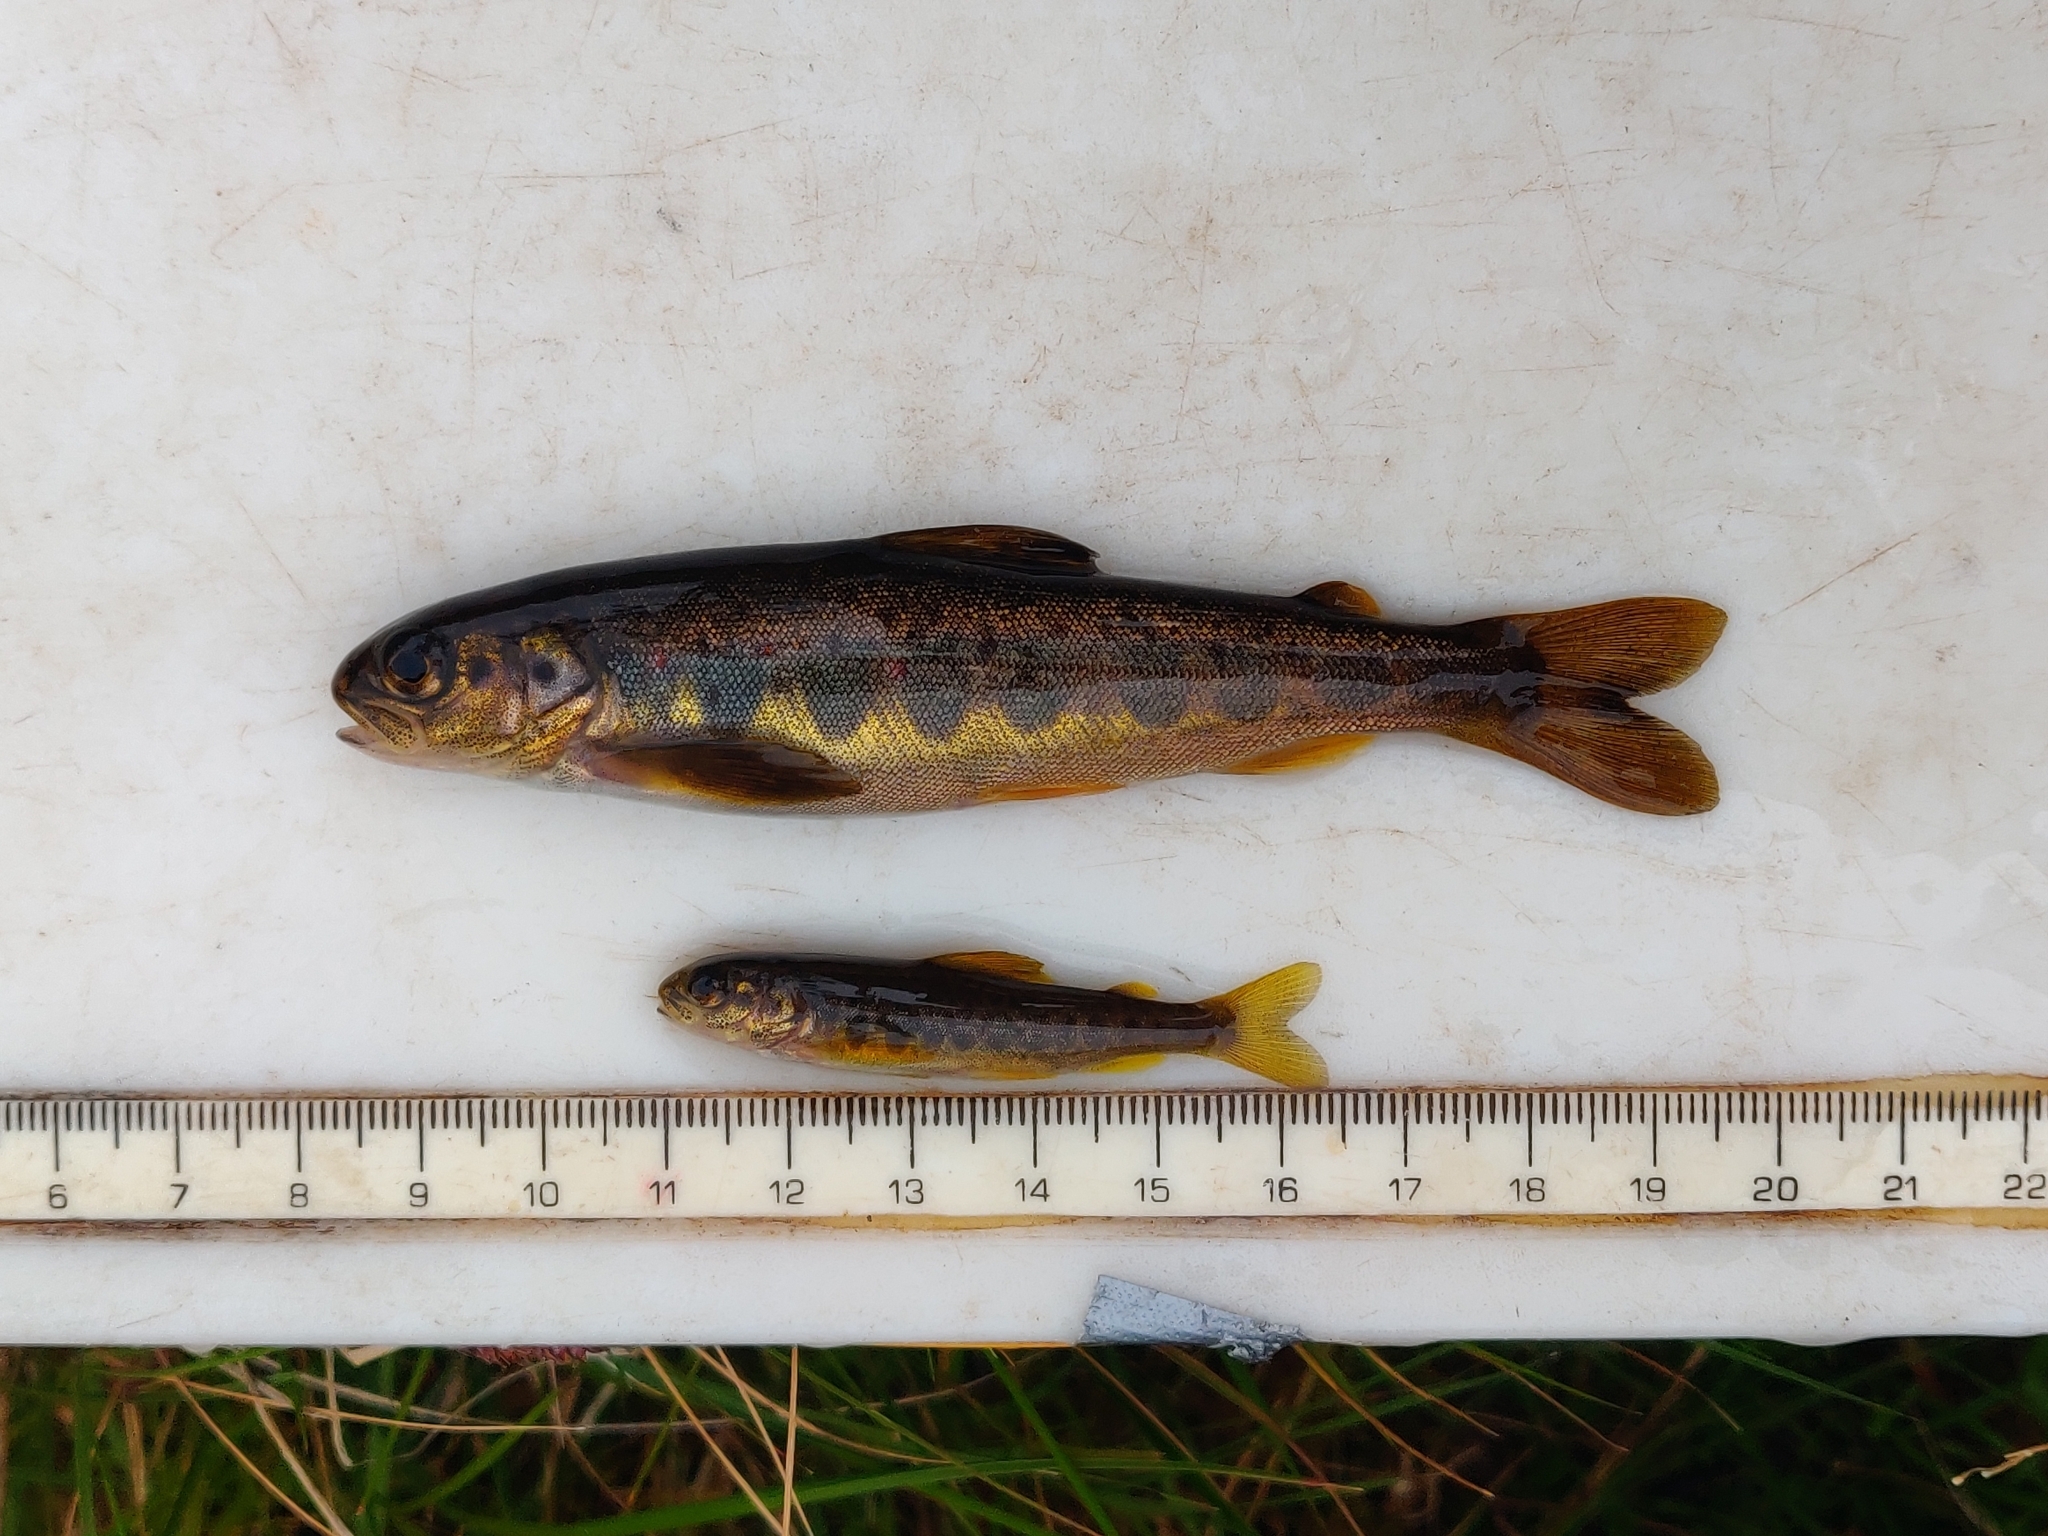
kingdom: Animalia
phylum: Chordata
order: Salmoniformes
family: Salmonidae
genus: Salmo
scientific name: Salmo salar
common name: Atlantic salmon
